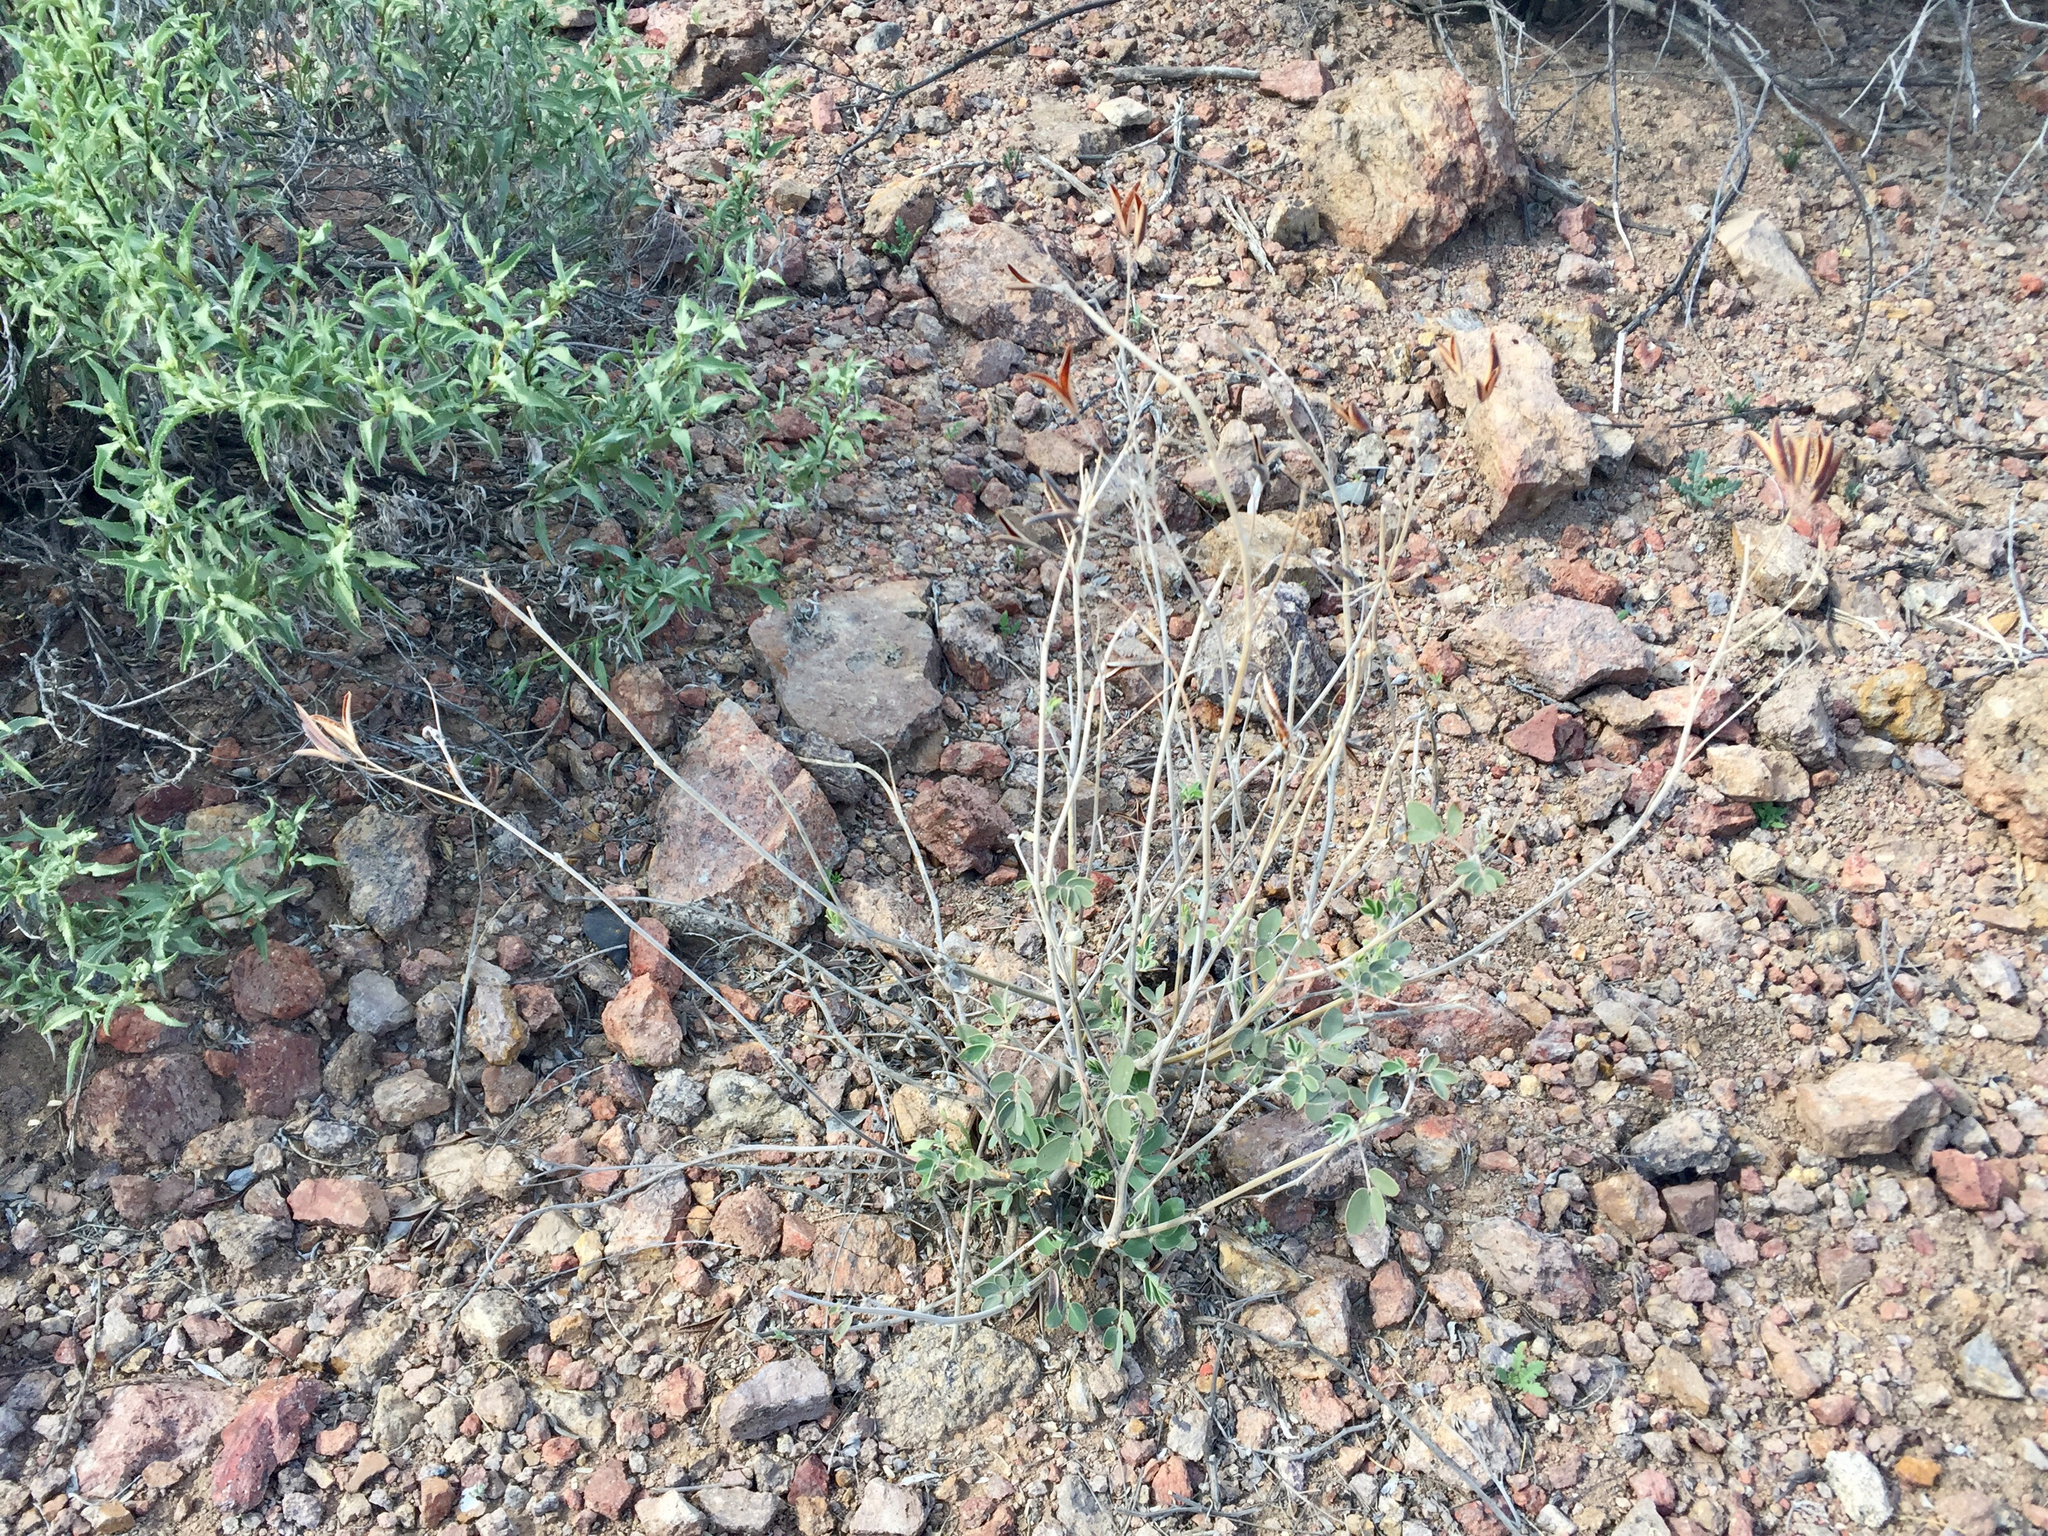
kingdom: Plantae
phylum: Tracheophyta
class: Magnoliopsida
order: Fabales
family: Fabaceae
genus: Senna
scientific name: Senna covesii
